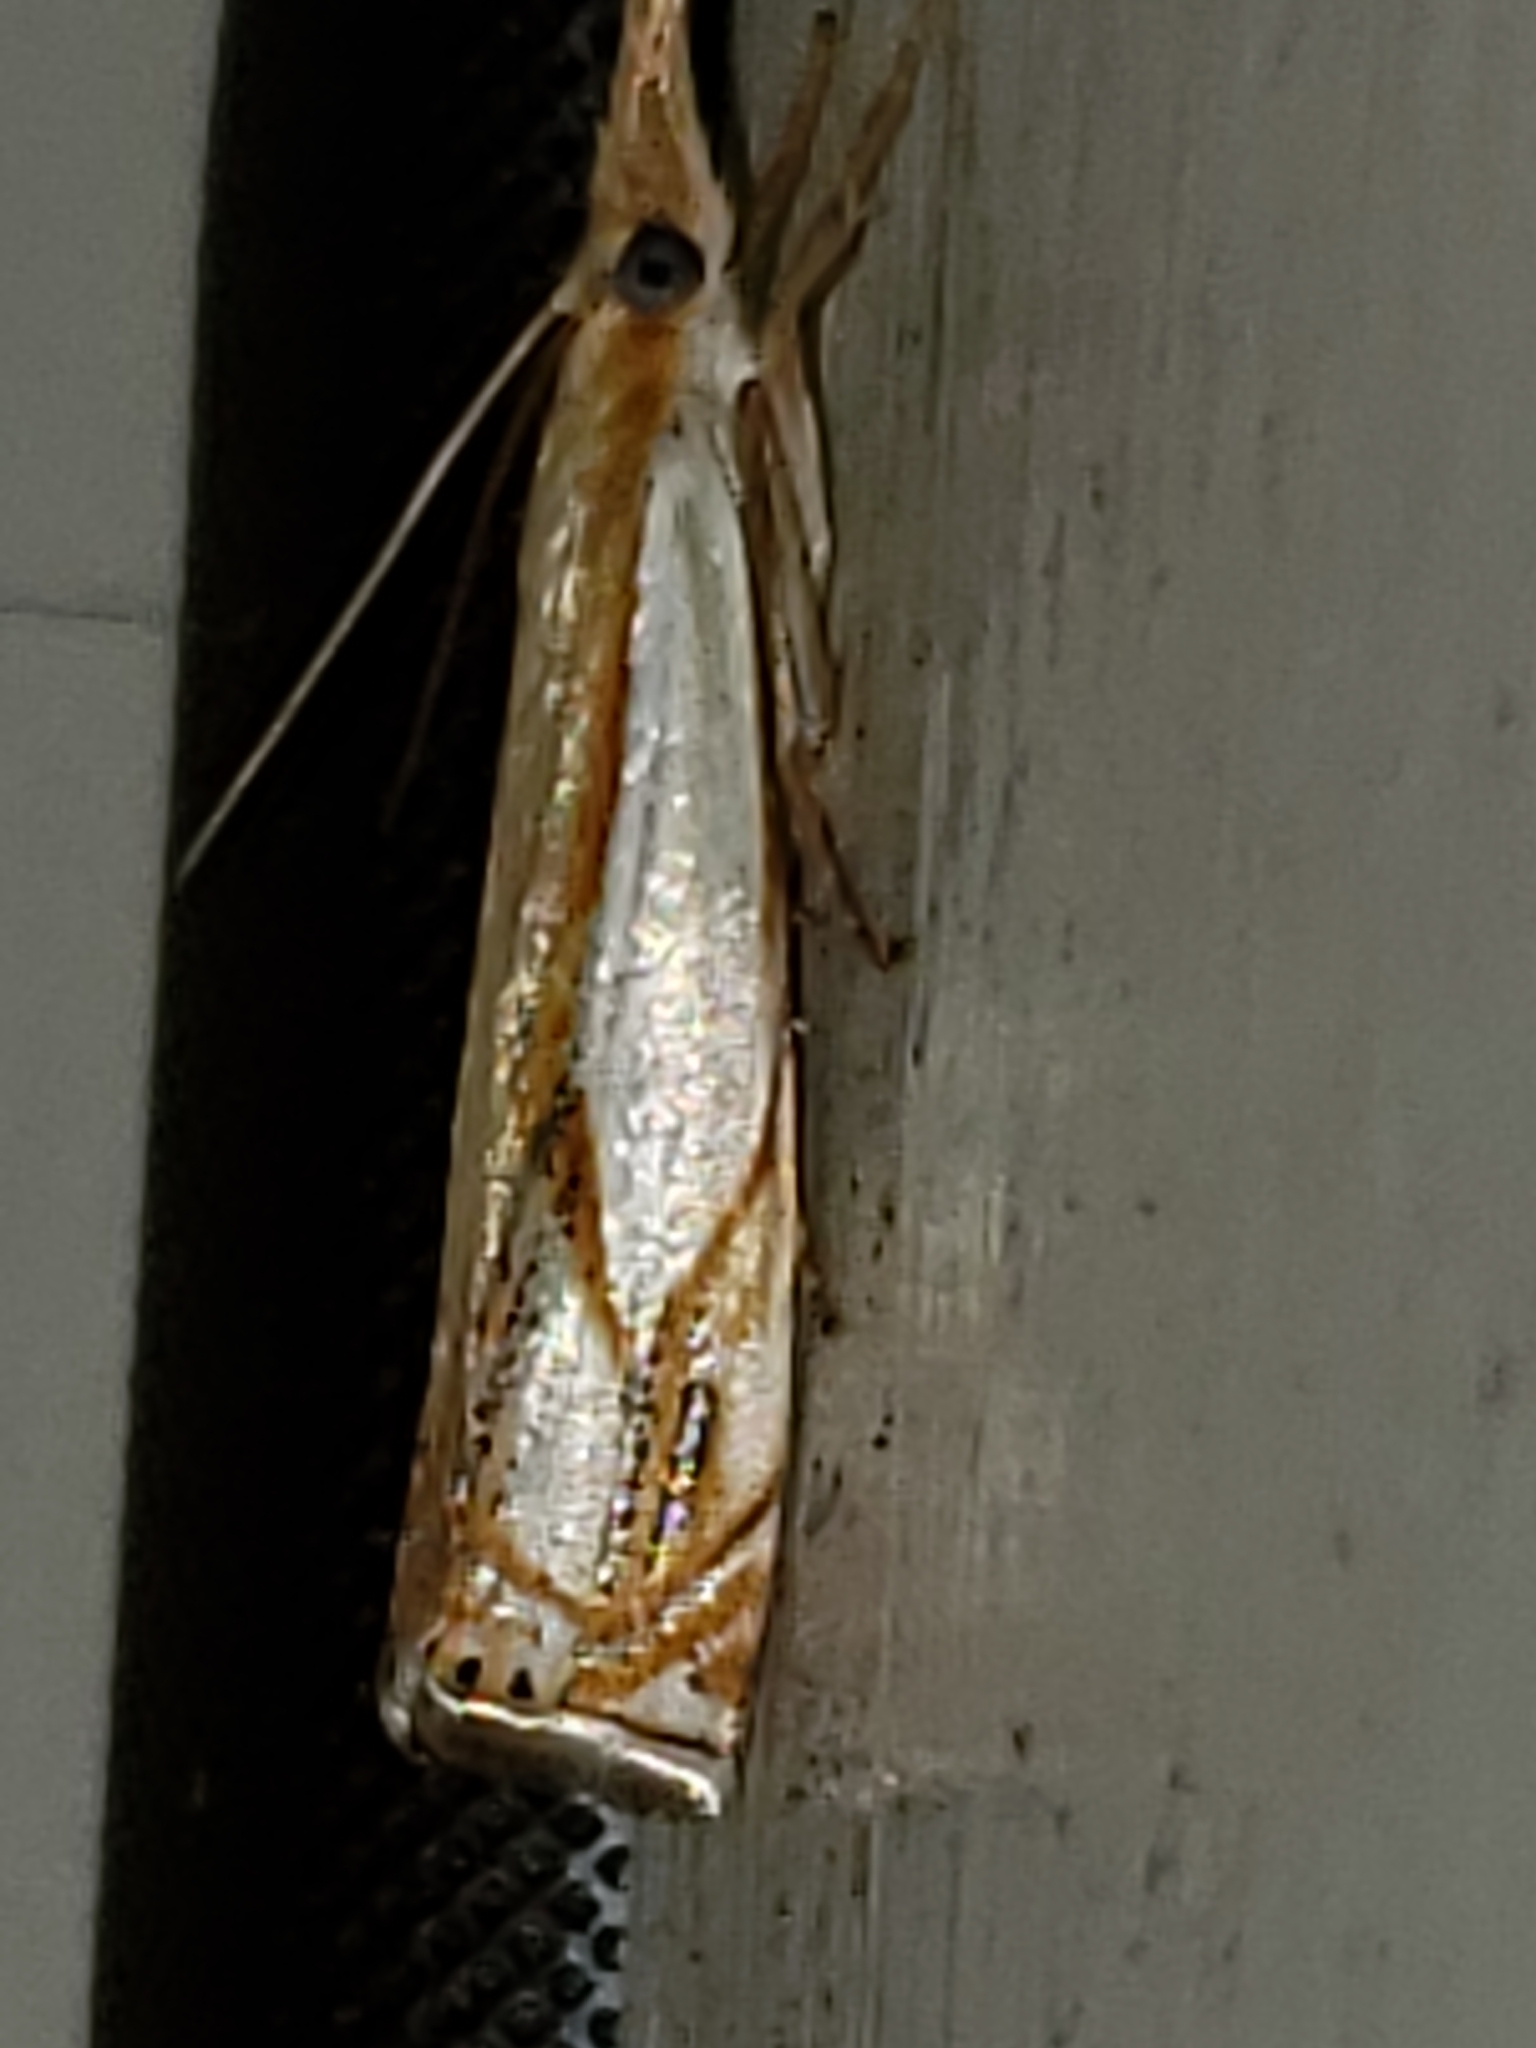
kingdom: Animalia
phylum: Arthropoda
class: Insecta
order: Lepidoptera
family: Crambidae
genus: Crambus
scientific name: Crambus agitatellus
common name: Double-banded grass-veneer
